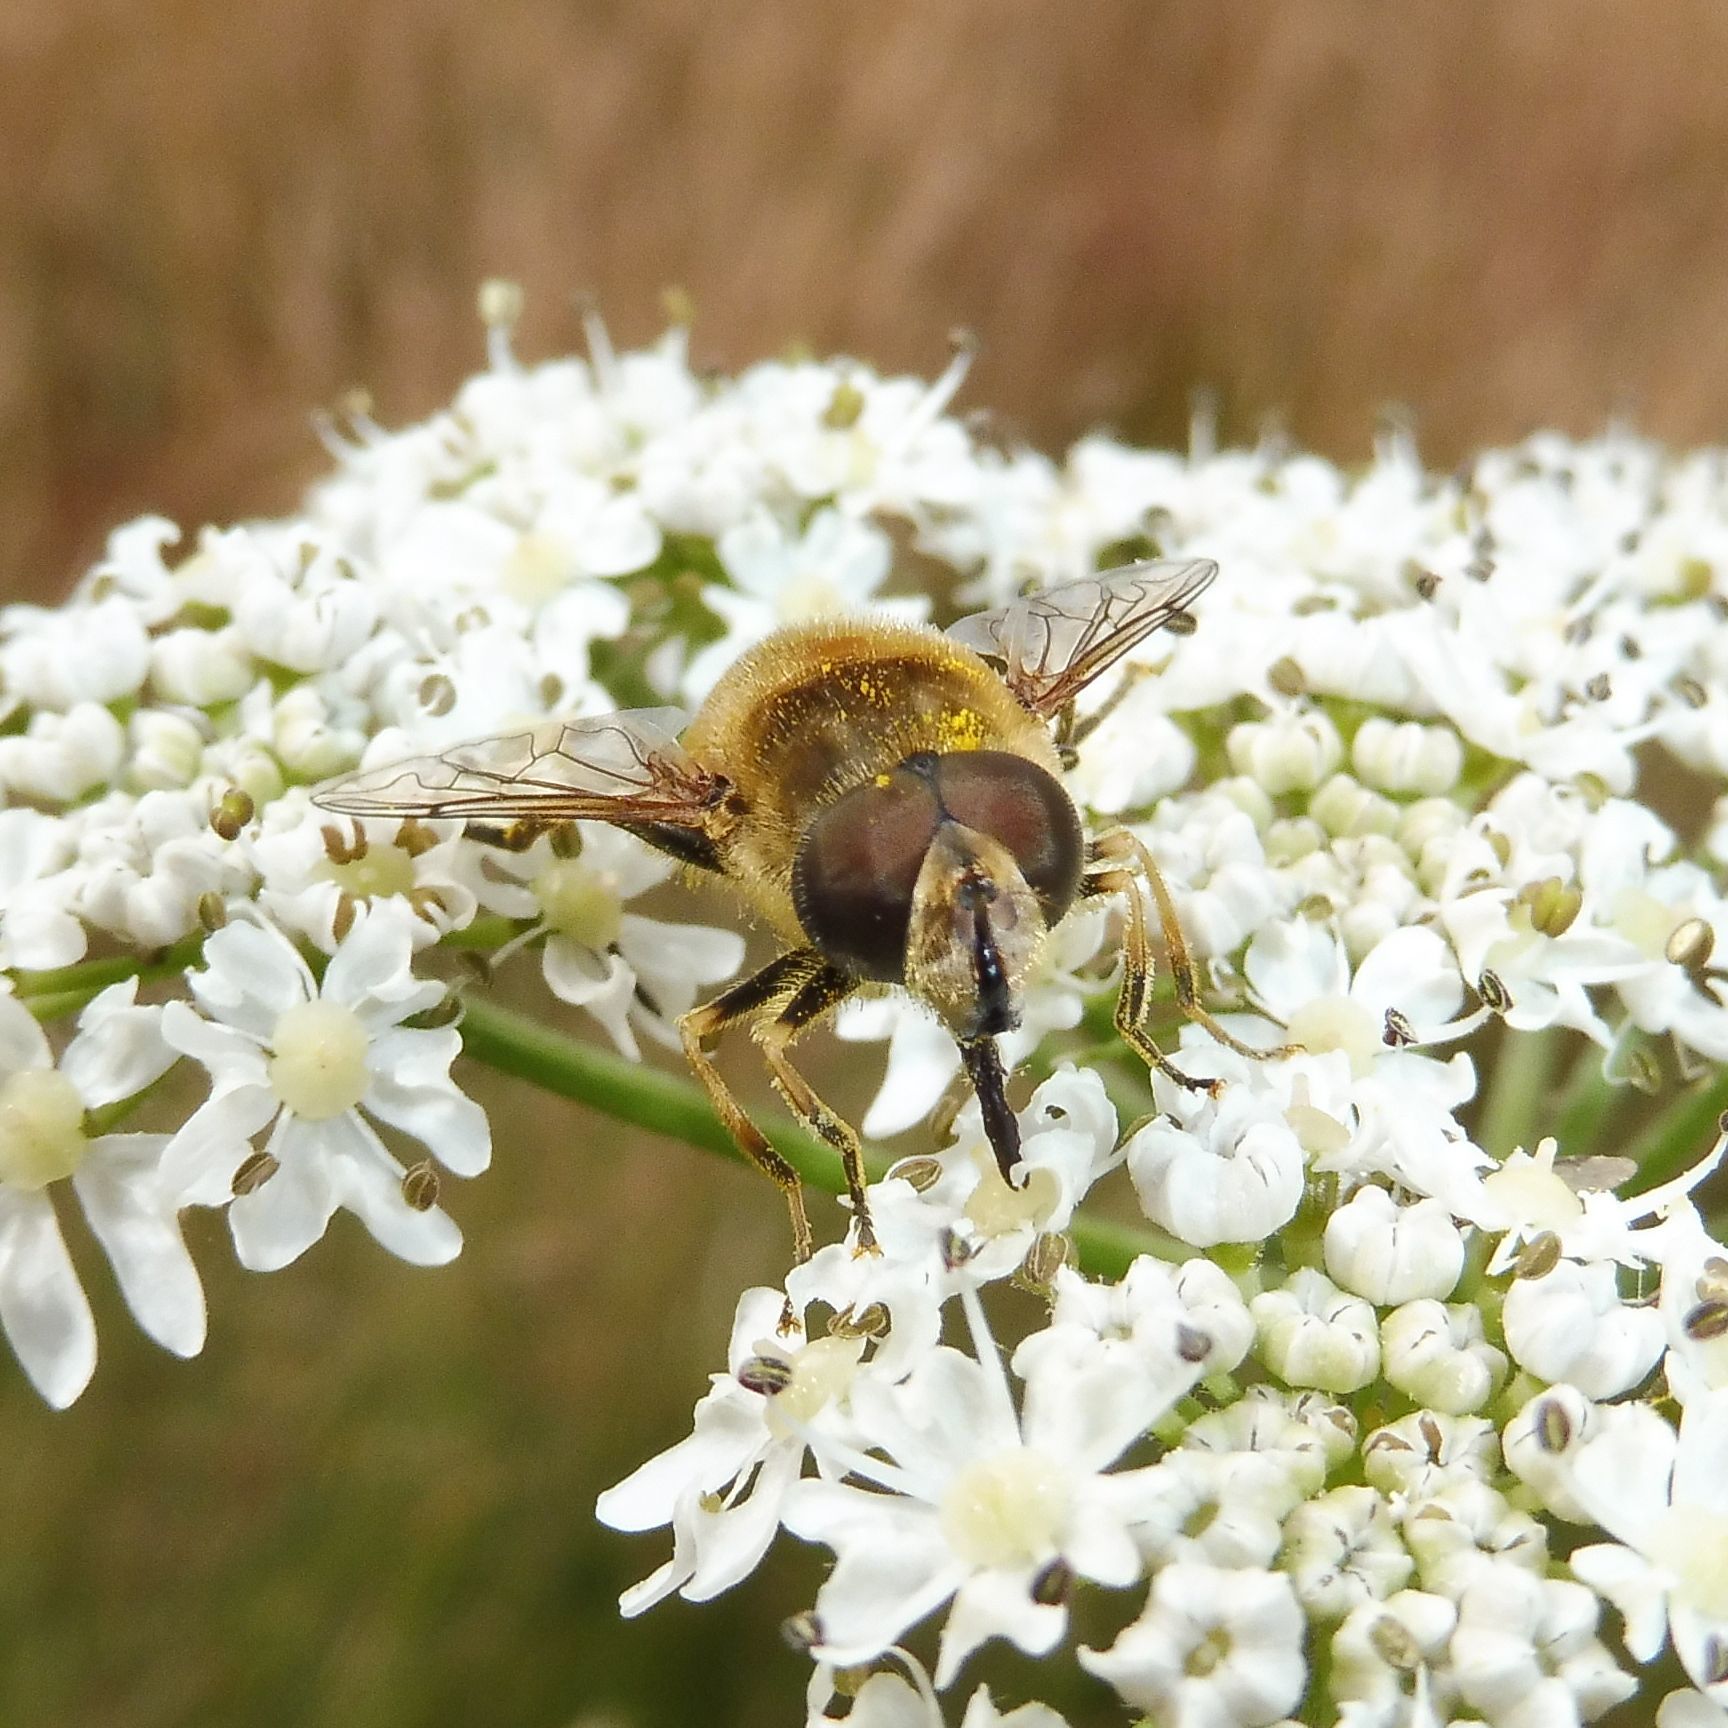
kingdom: Animalia
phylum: Arthropoda
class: Insecta
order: Diptera
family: Syrphidae
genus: Eristalis
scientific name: Eristalis nemorum
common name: Orange-spined drone fly
